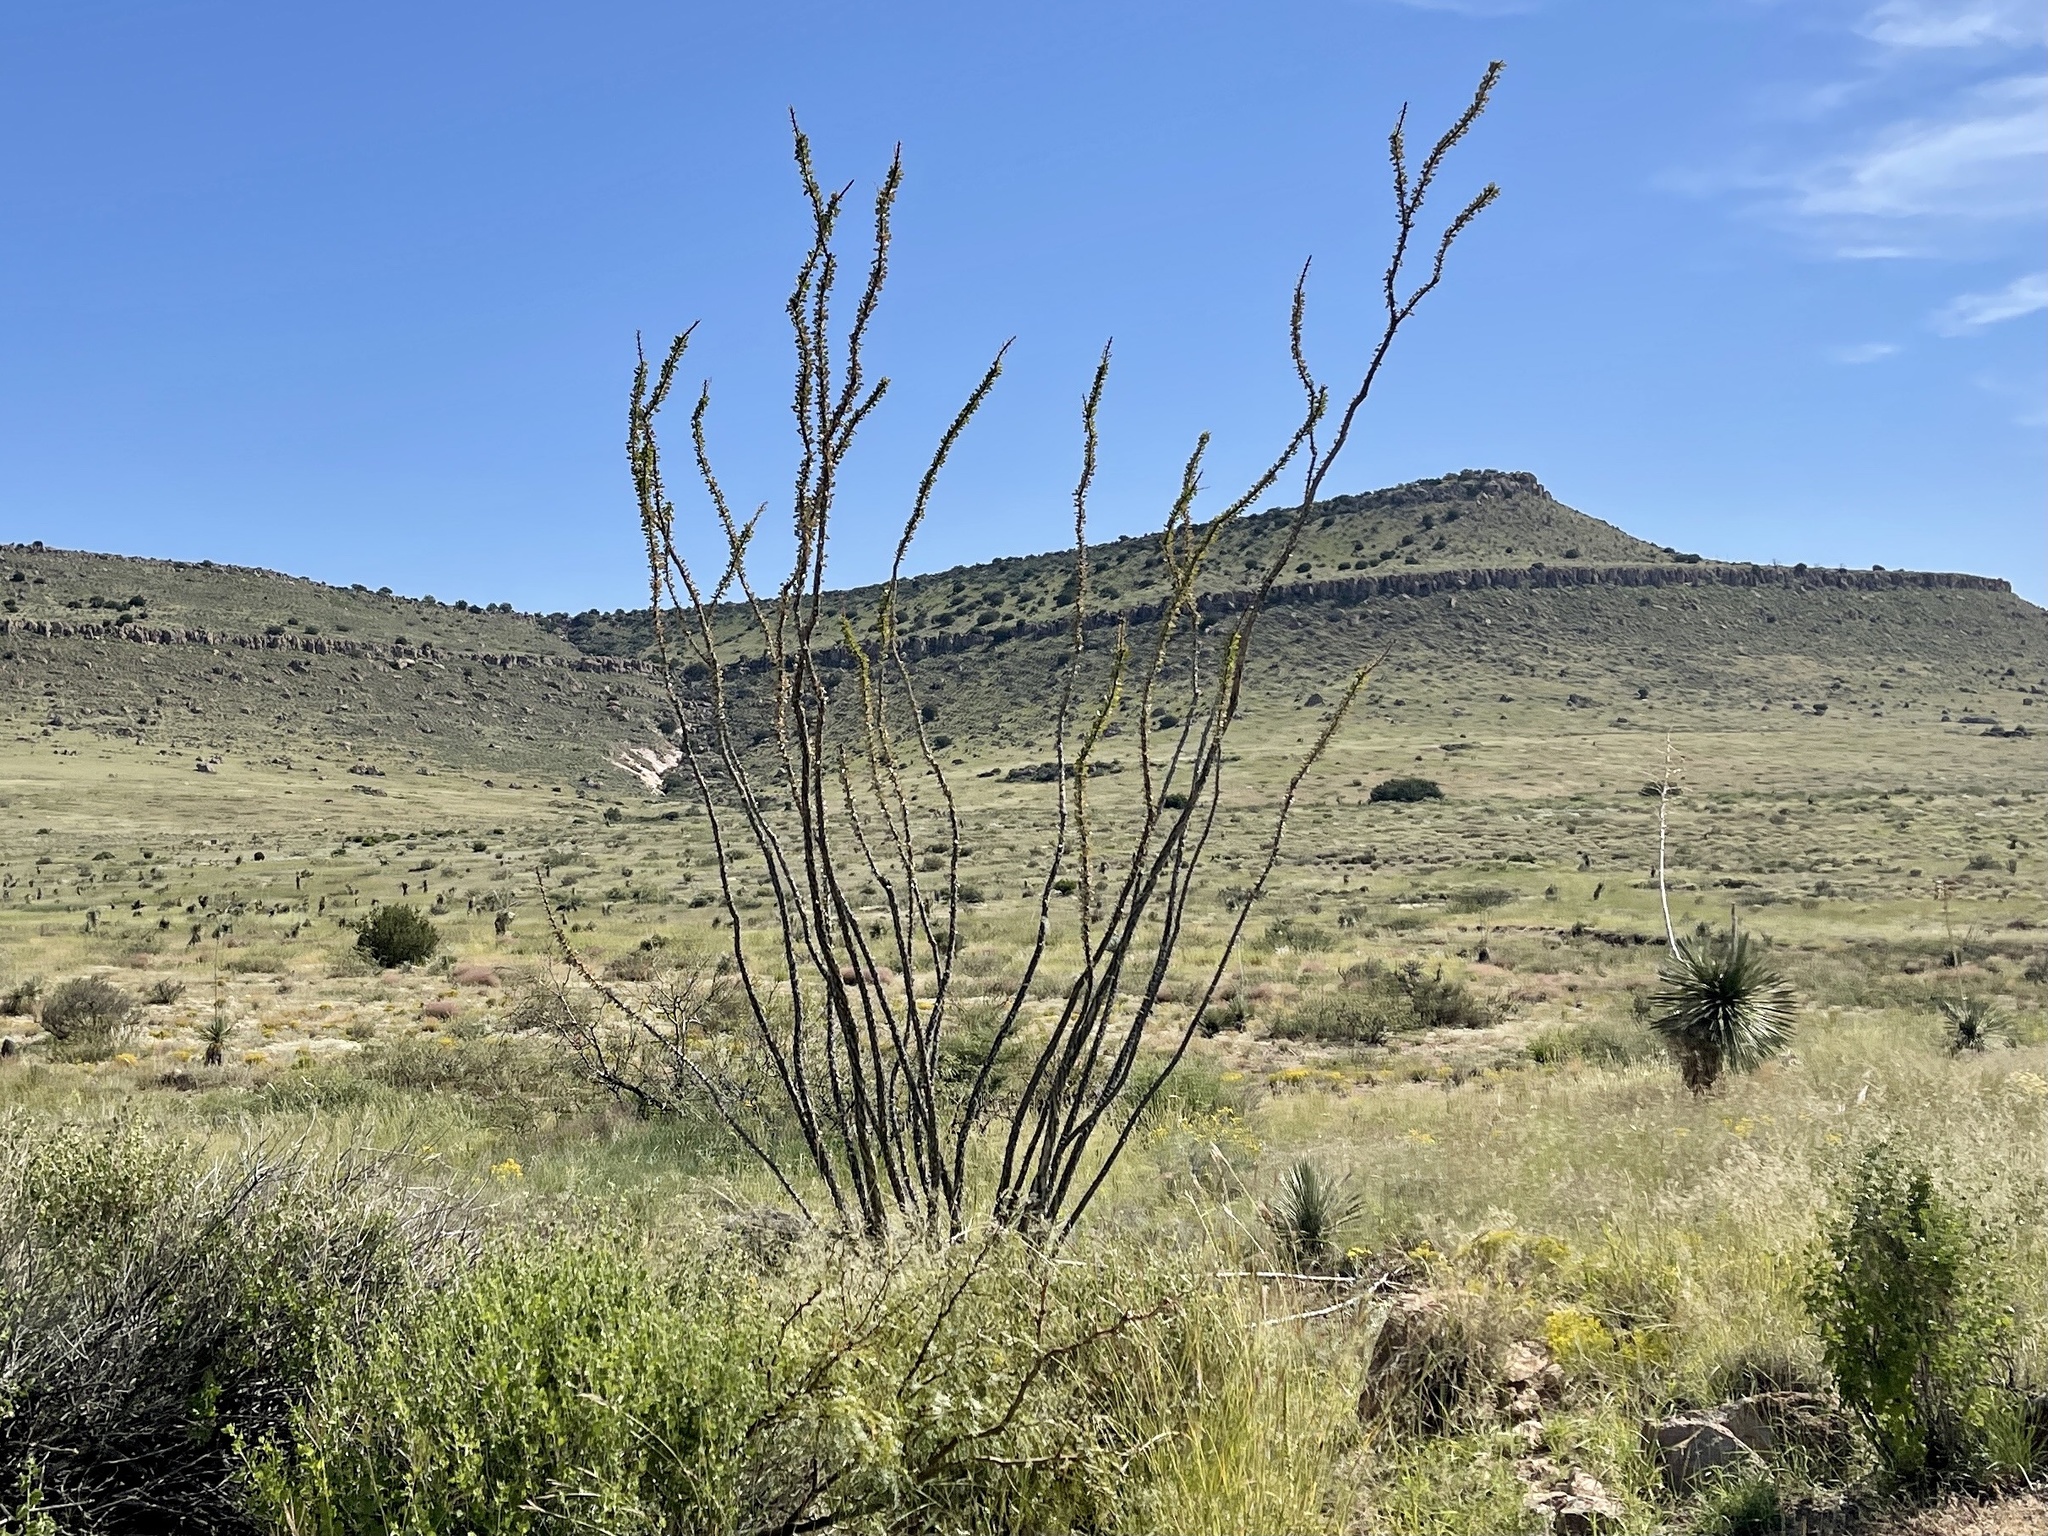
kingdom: Plantae
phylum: Tracheophyta
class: Magnoliopsida
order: Ericales
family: Fouquieriaceae
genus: Fouquieria
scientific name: Fouquieria splendens
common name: Vine-cactus
